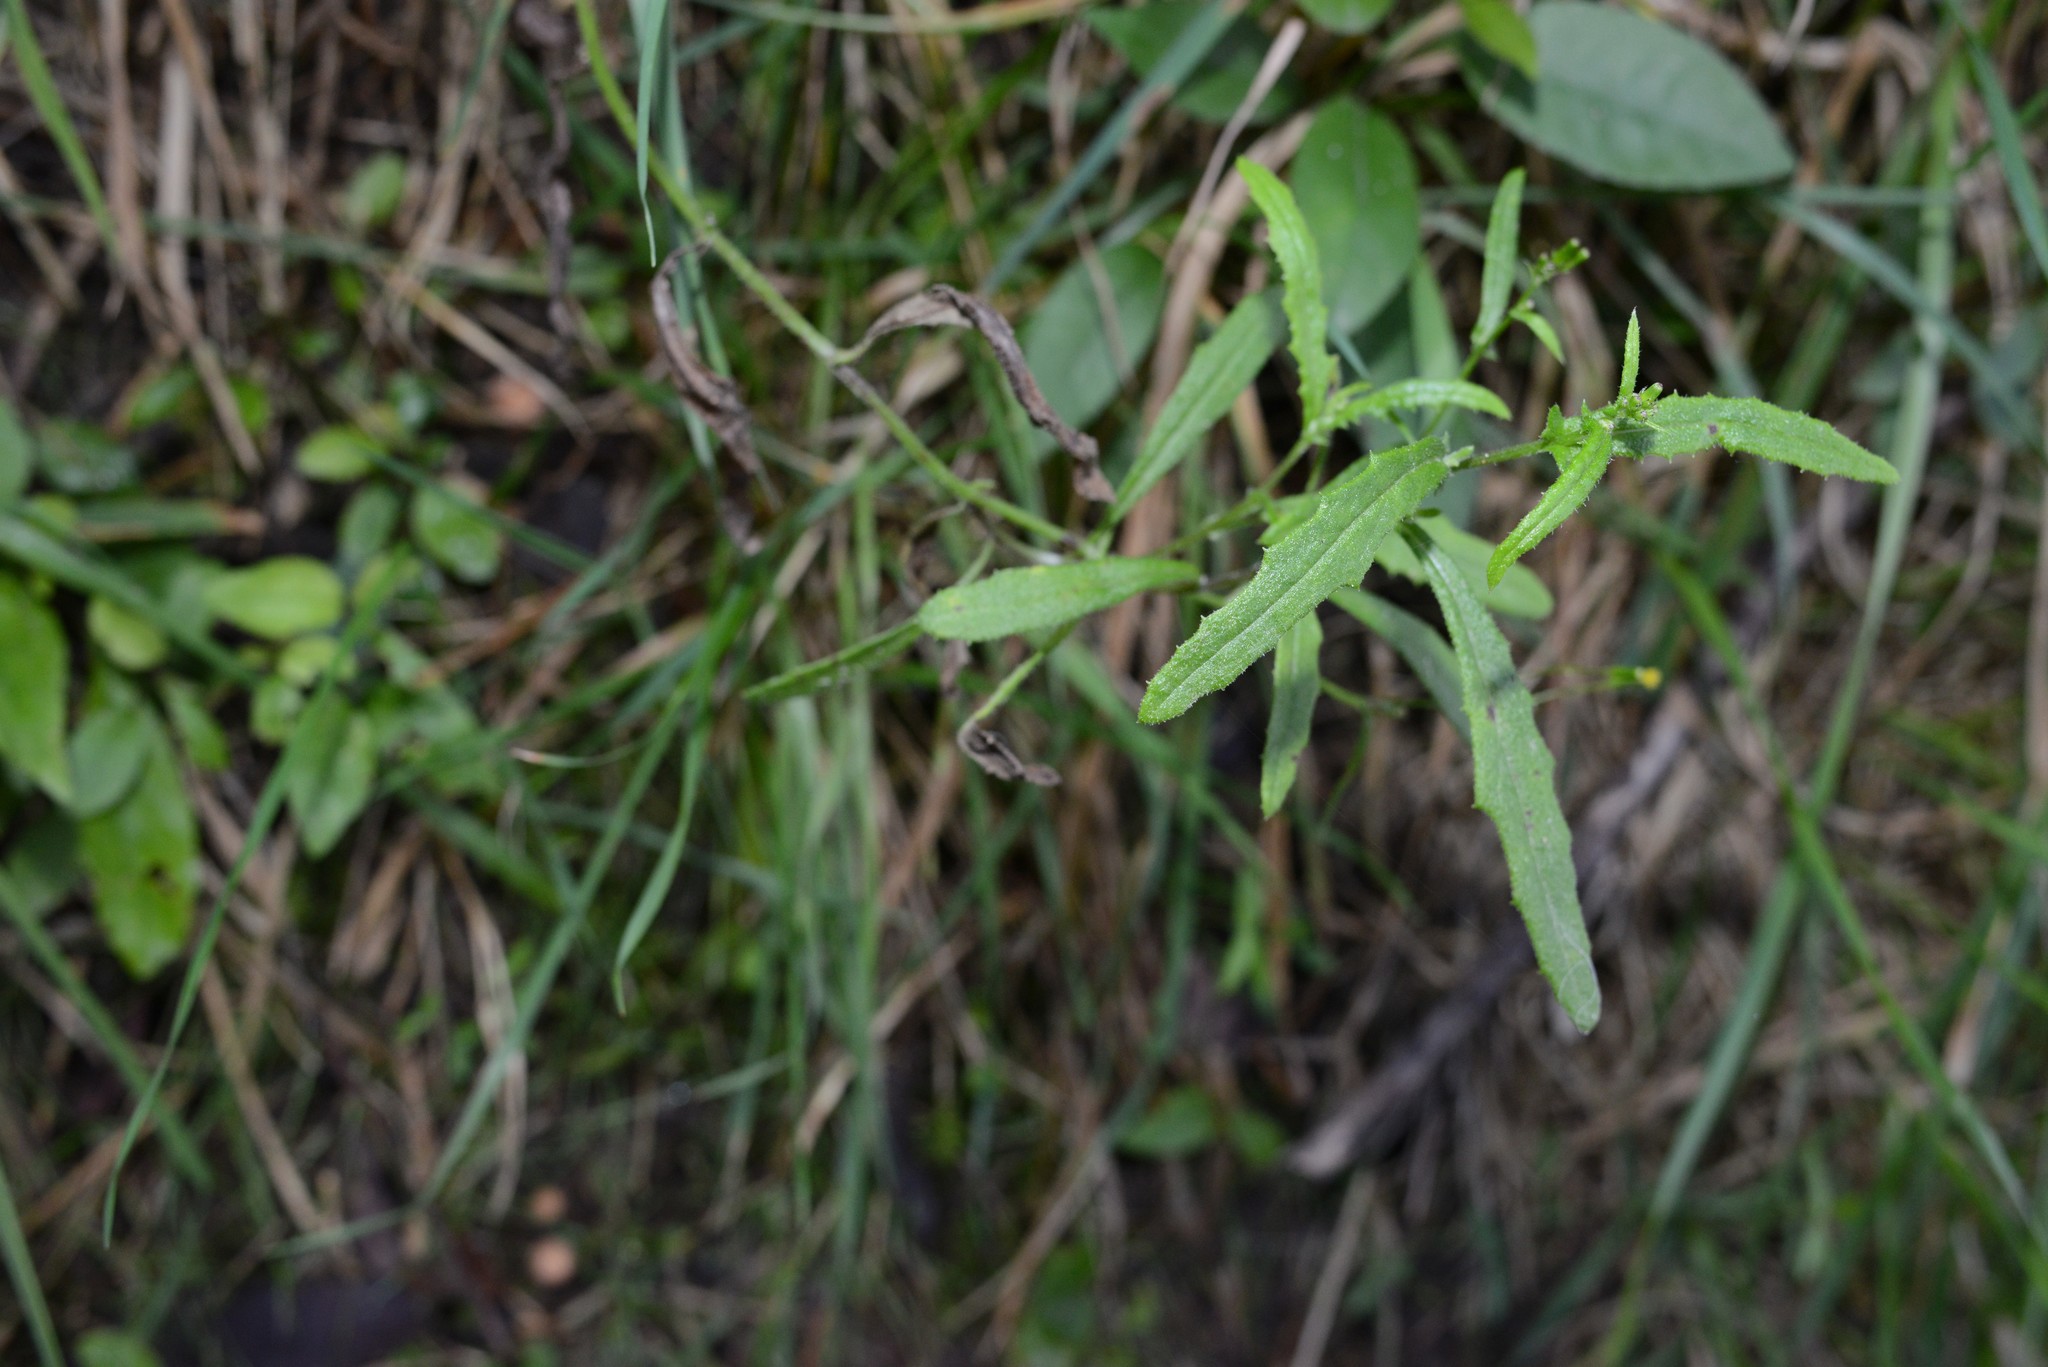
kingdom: Plantae
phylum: Tracheophyta
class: Magnoliopsida
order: Asterales
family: Asteraceae
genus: Senecio
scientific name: Senecio hispidulus
